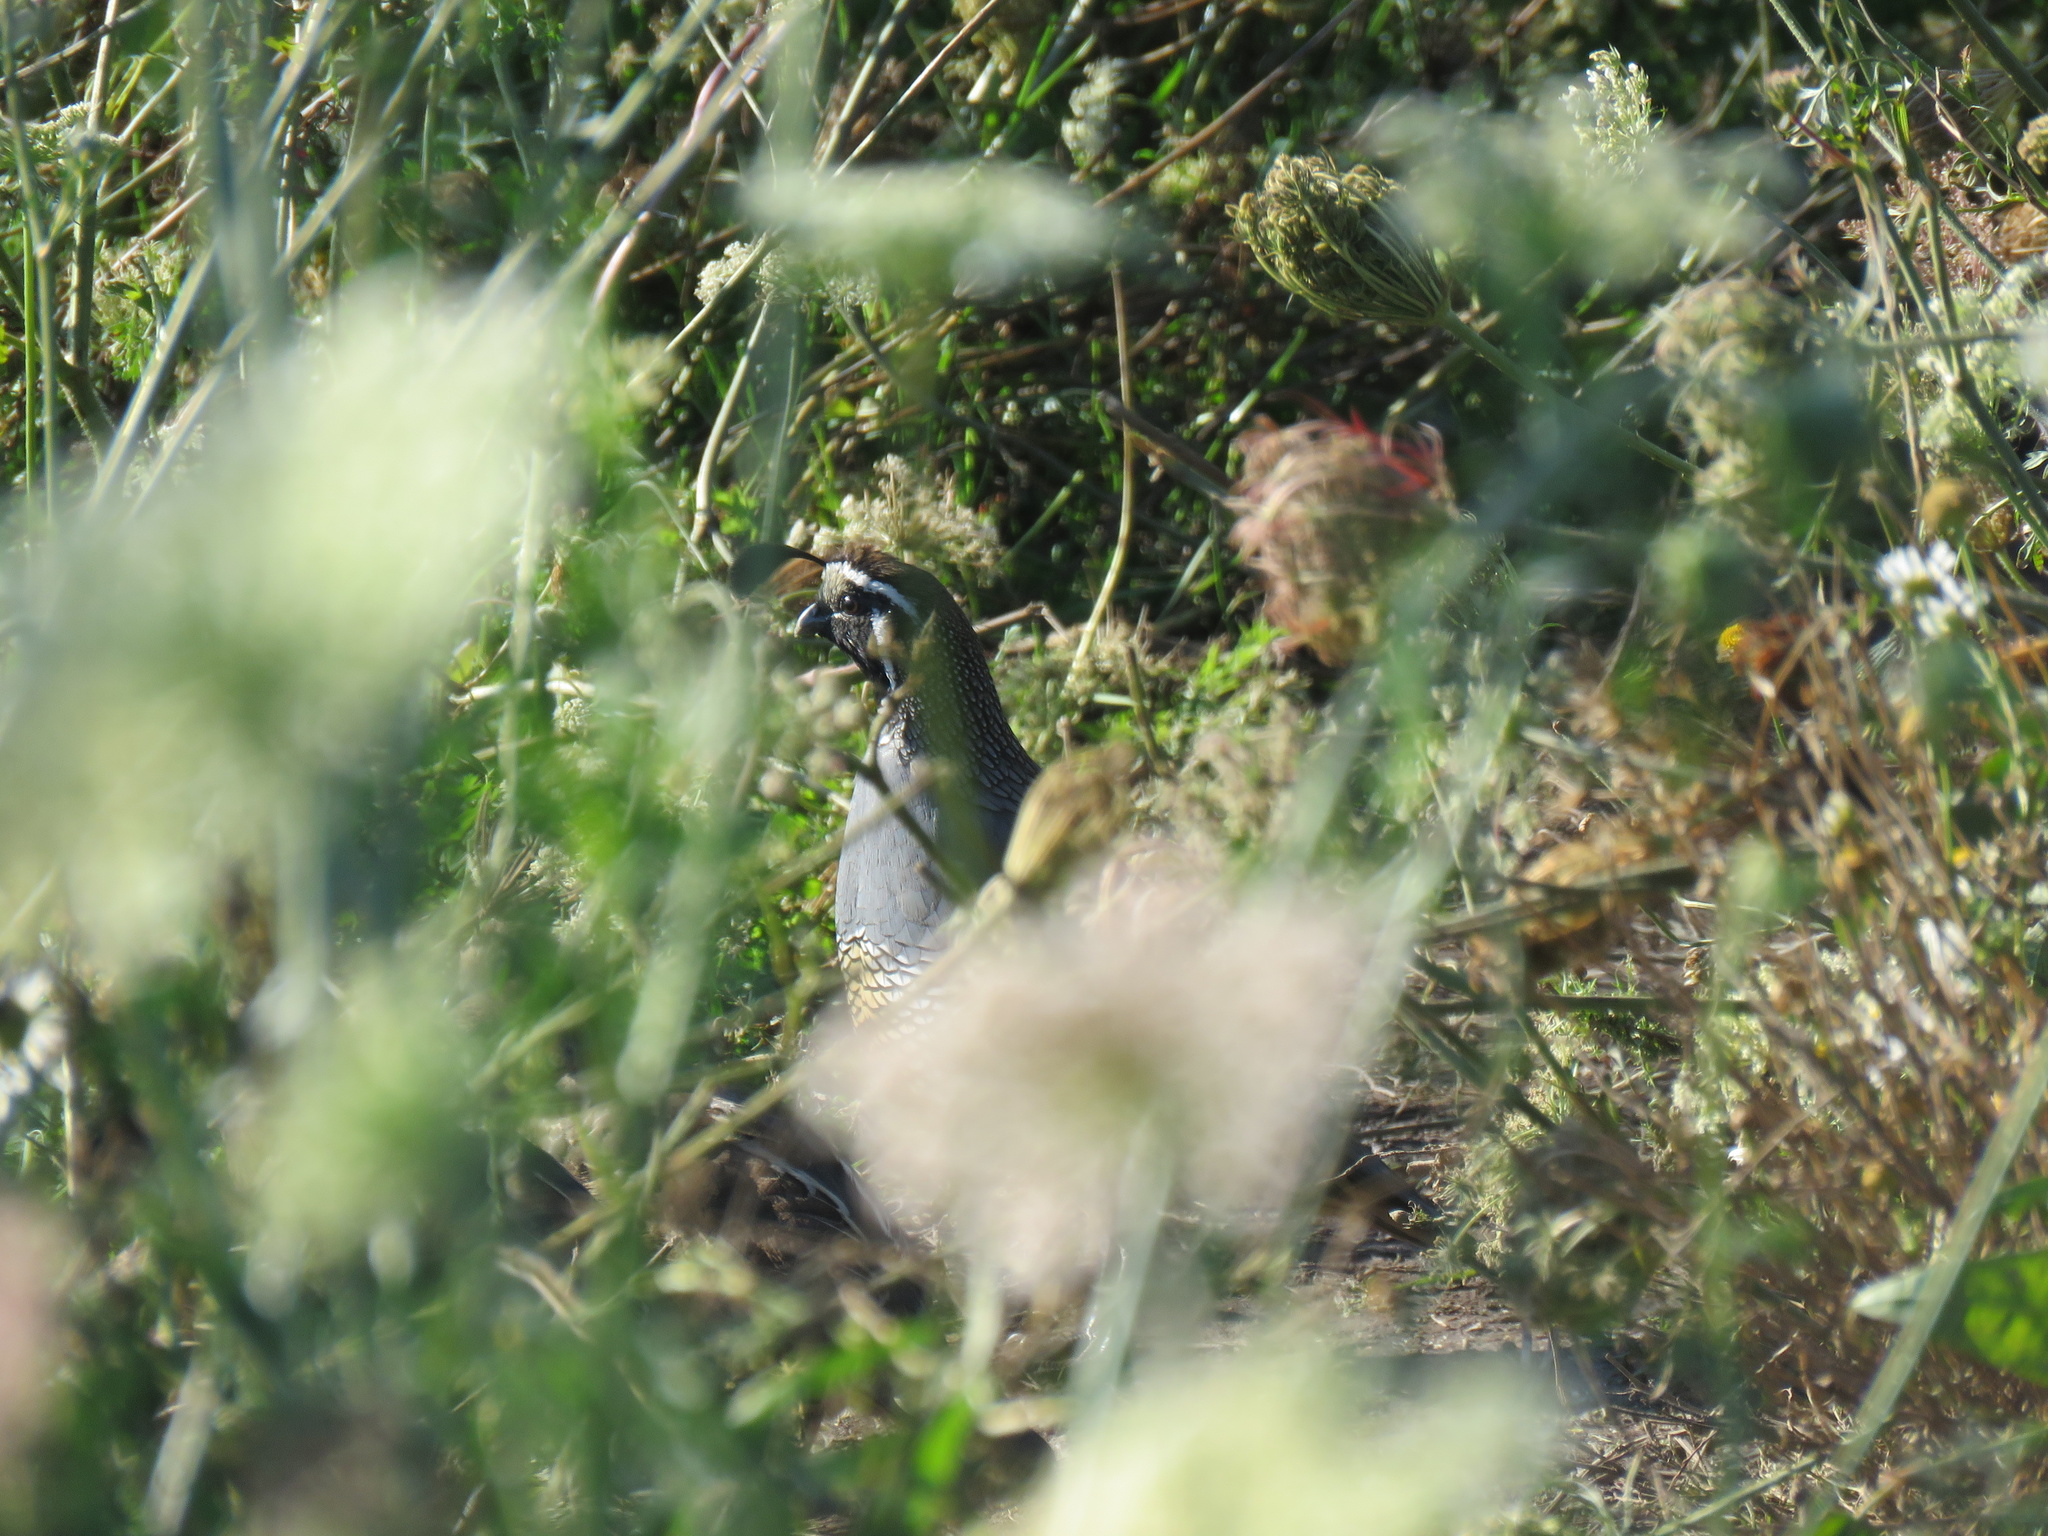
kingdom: Animalia
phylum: Chordata
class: Aves
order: Galliformes
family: Odontophoridae
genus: Callipepla
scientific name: Callipepla californica
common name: California quail
